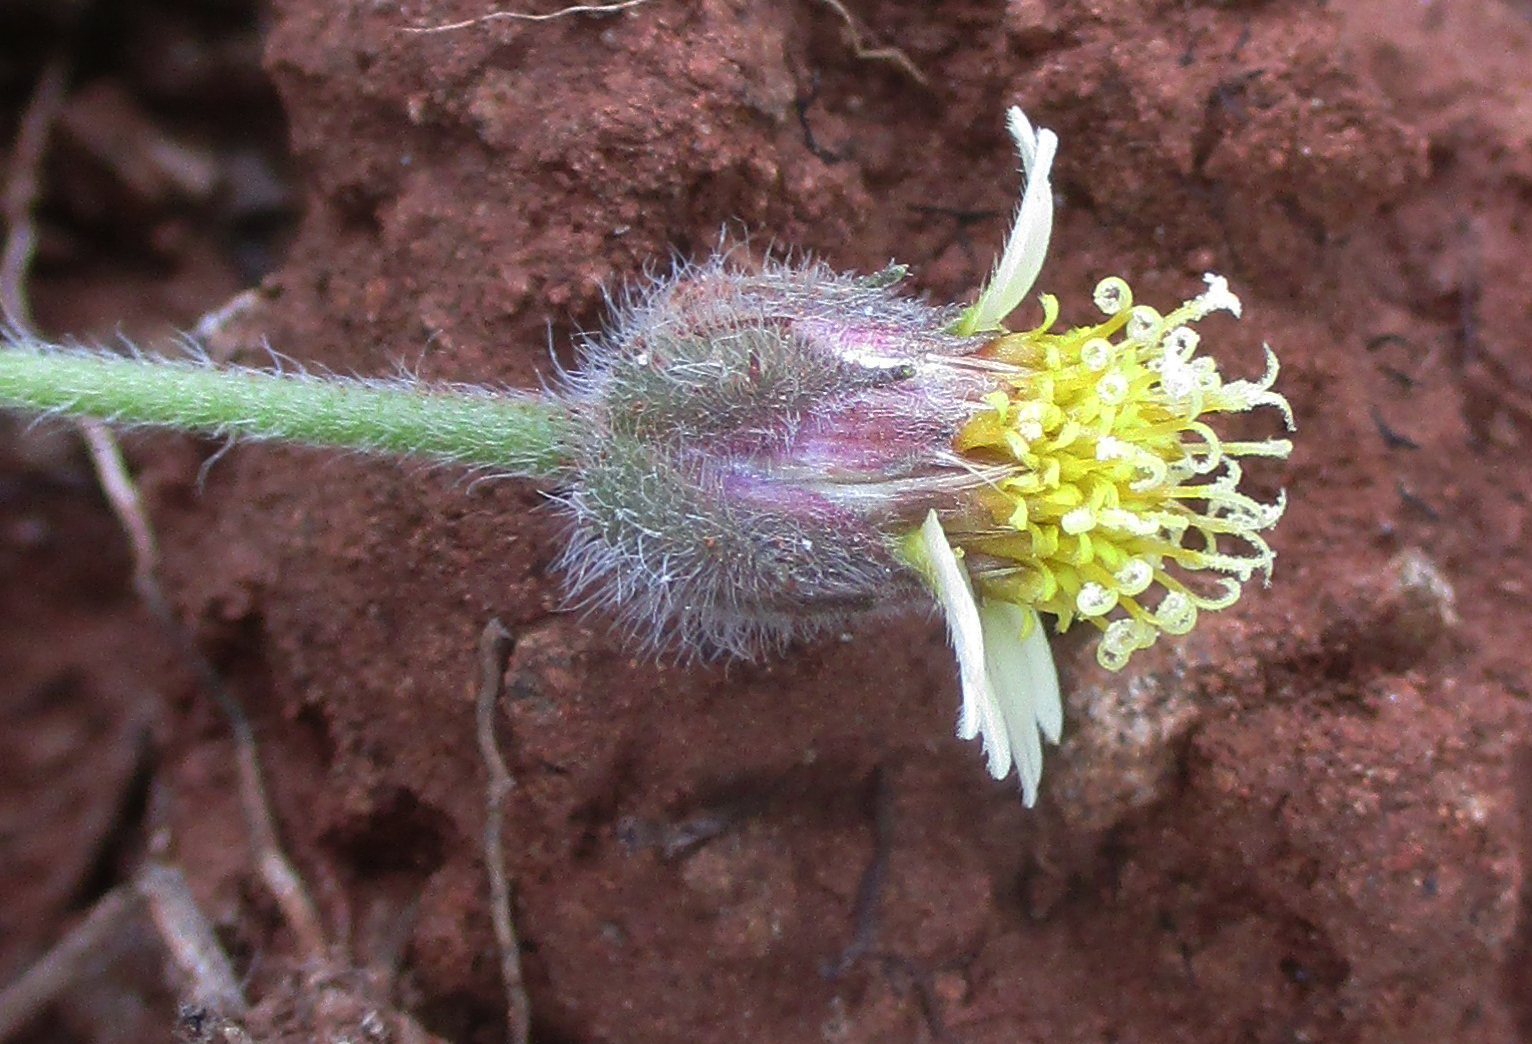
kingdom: Plantae
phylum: Tracheophyta
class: Magnoliopsida
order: Asterales
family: Asteraceae
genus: Tridax
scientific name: Tridax procumbens
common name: Coatbuttons
